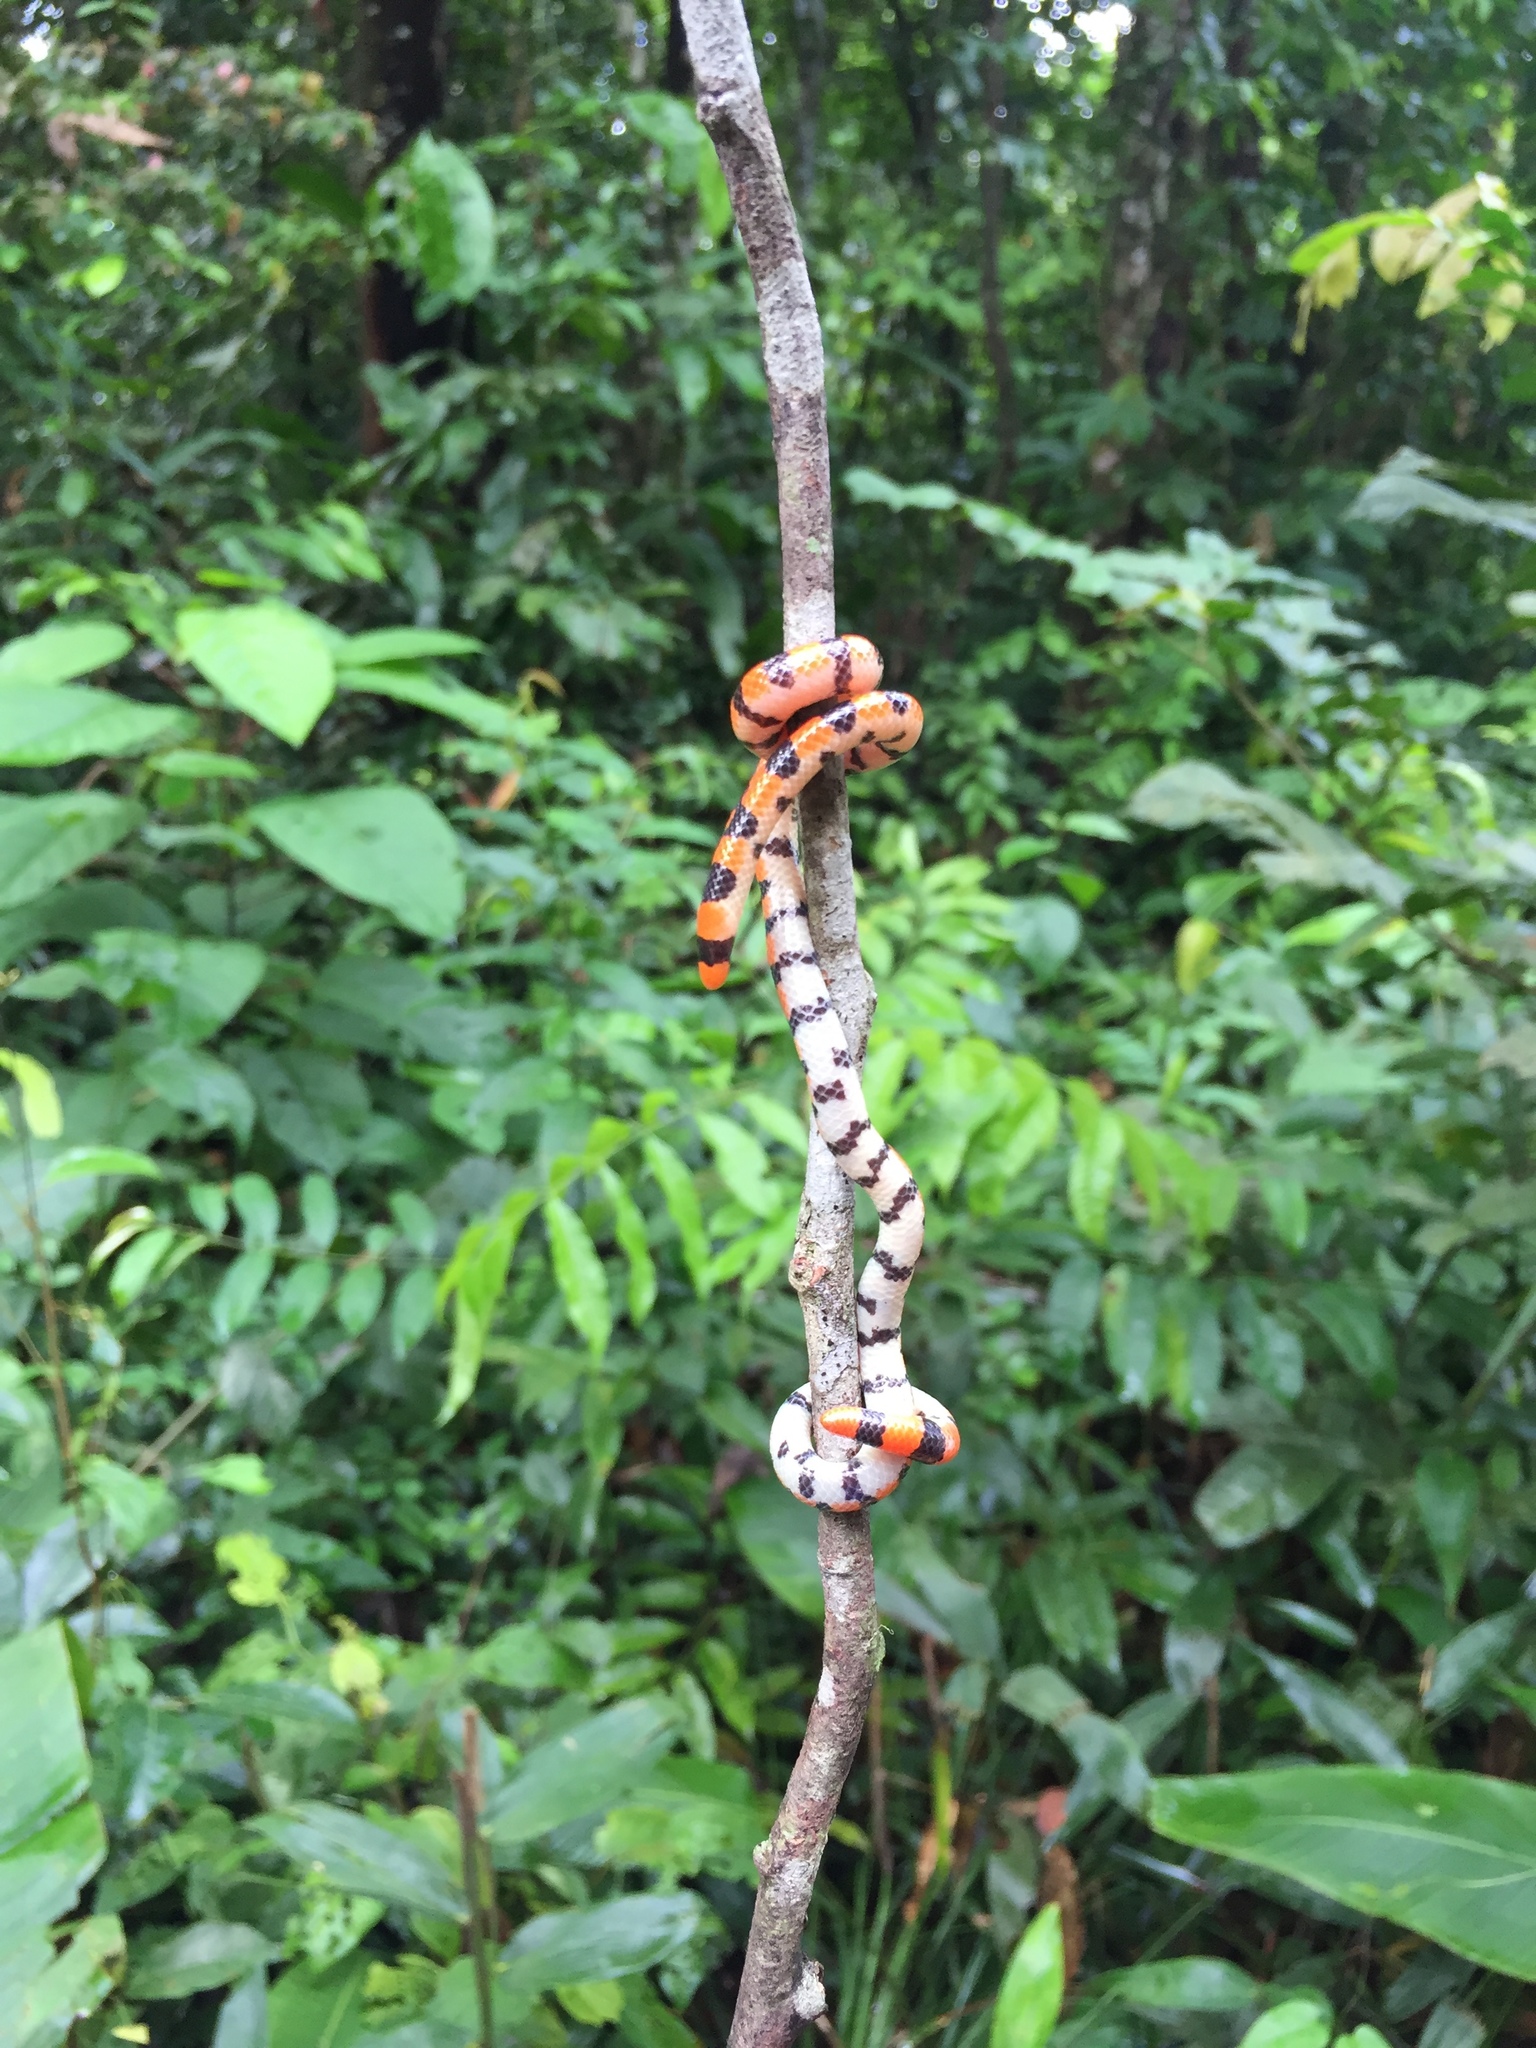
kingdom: Animalia
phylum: Chordata
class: Squamata
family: Aniliidae
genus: Anilius
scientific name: Anilius scytale
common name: Coral pipe snakes
